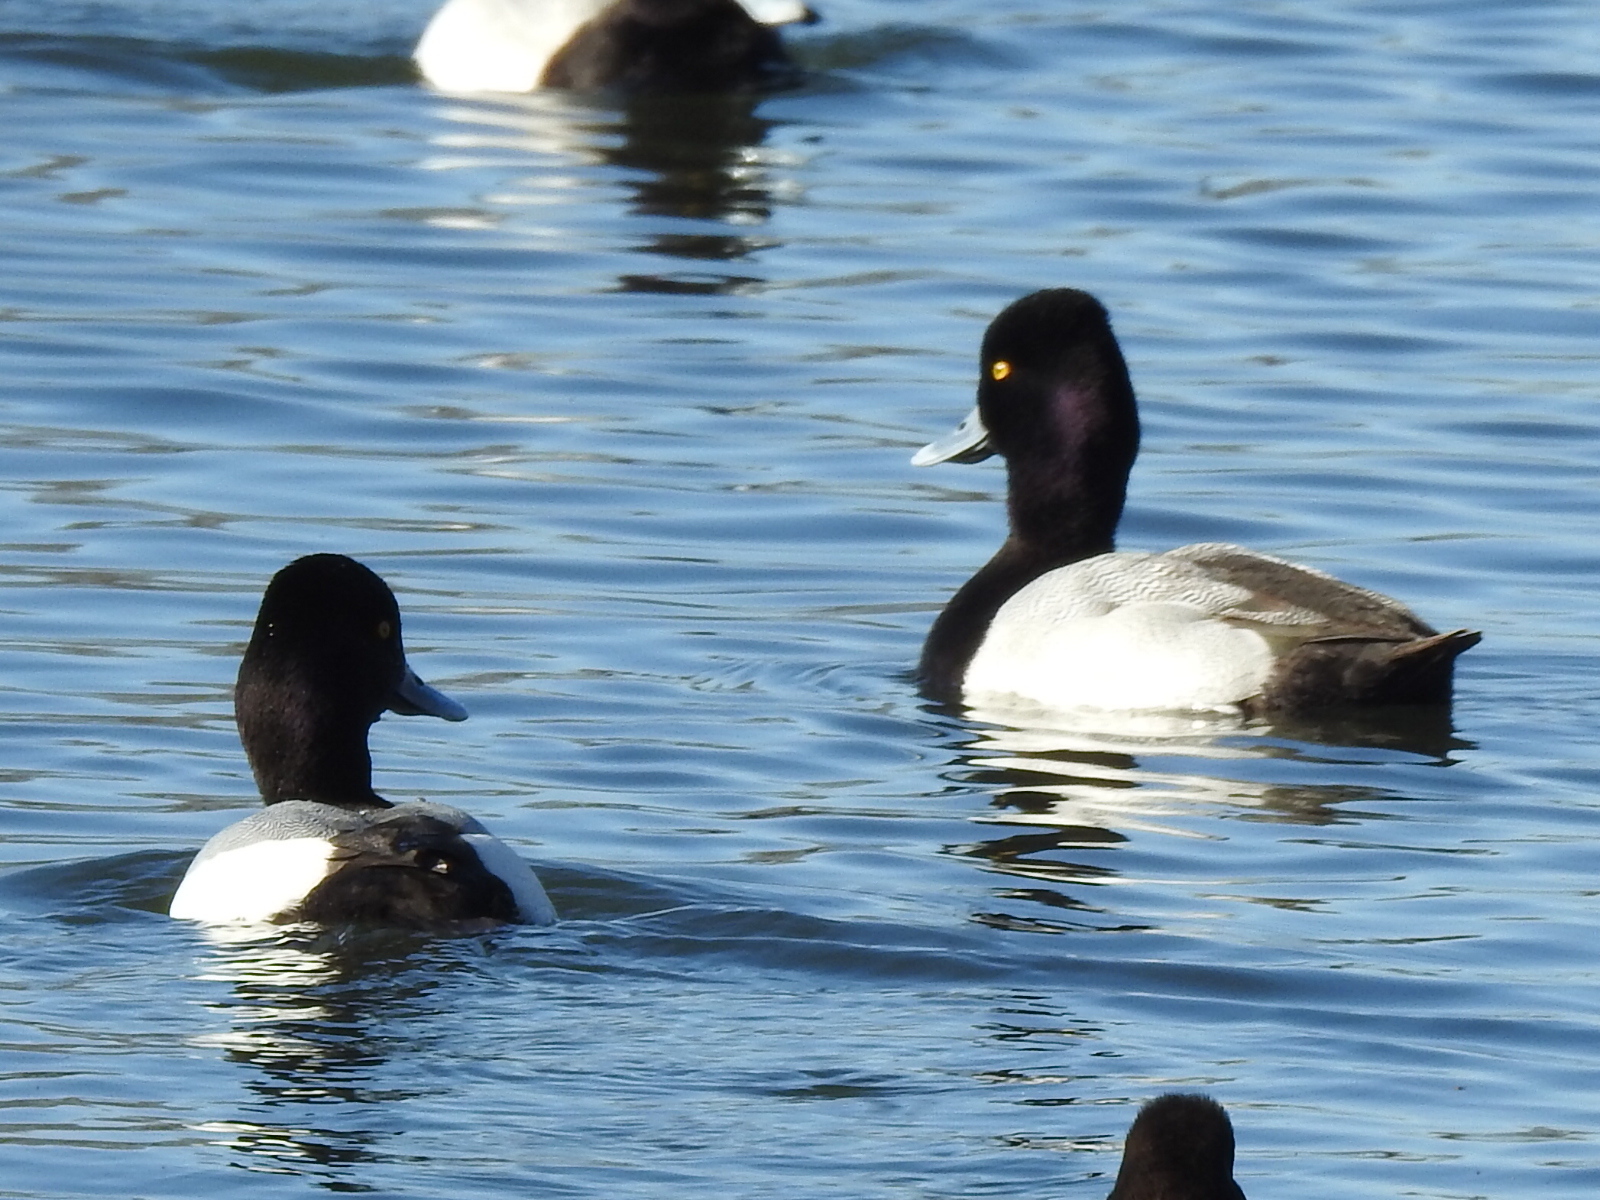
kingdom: Animalia
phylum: Chordata
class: Aves
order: Anseriformes
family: Anatidae
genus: Aythya
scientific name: Aythya affinis
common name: Lesser scaup
